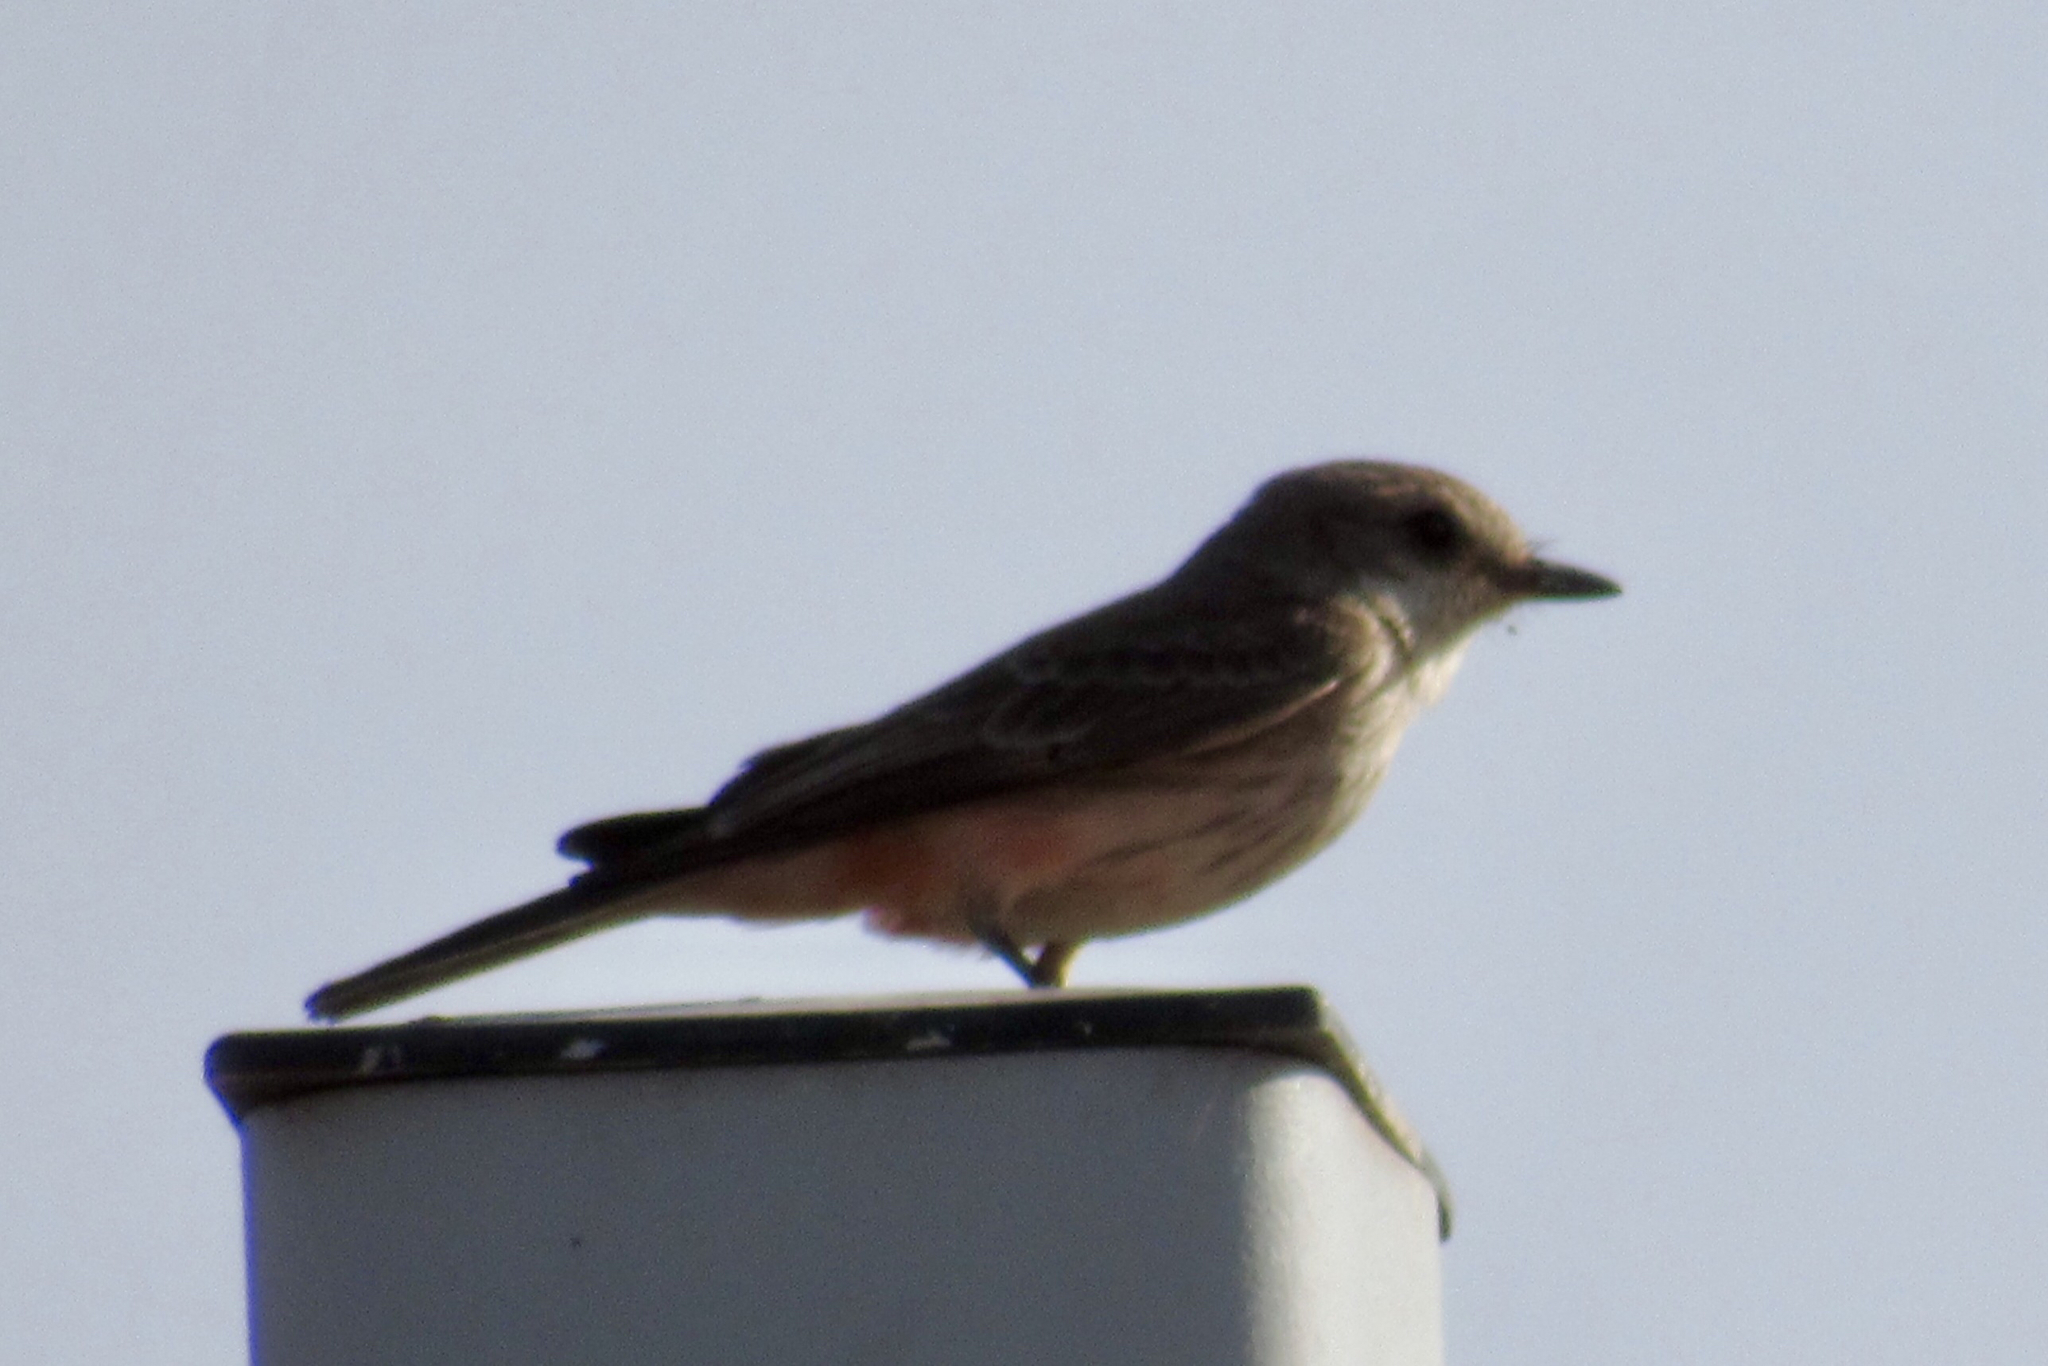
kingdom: Animalia
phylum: Chordata
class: Aves
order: Passeriformes
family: Tyrannidae
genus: Pyrocephalus
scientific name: Pyrocephalus rubinus
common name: Vermilion flycatcher
